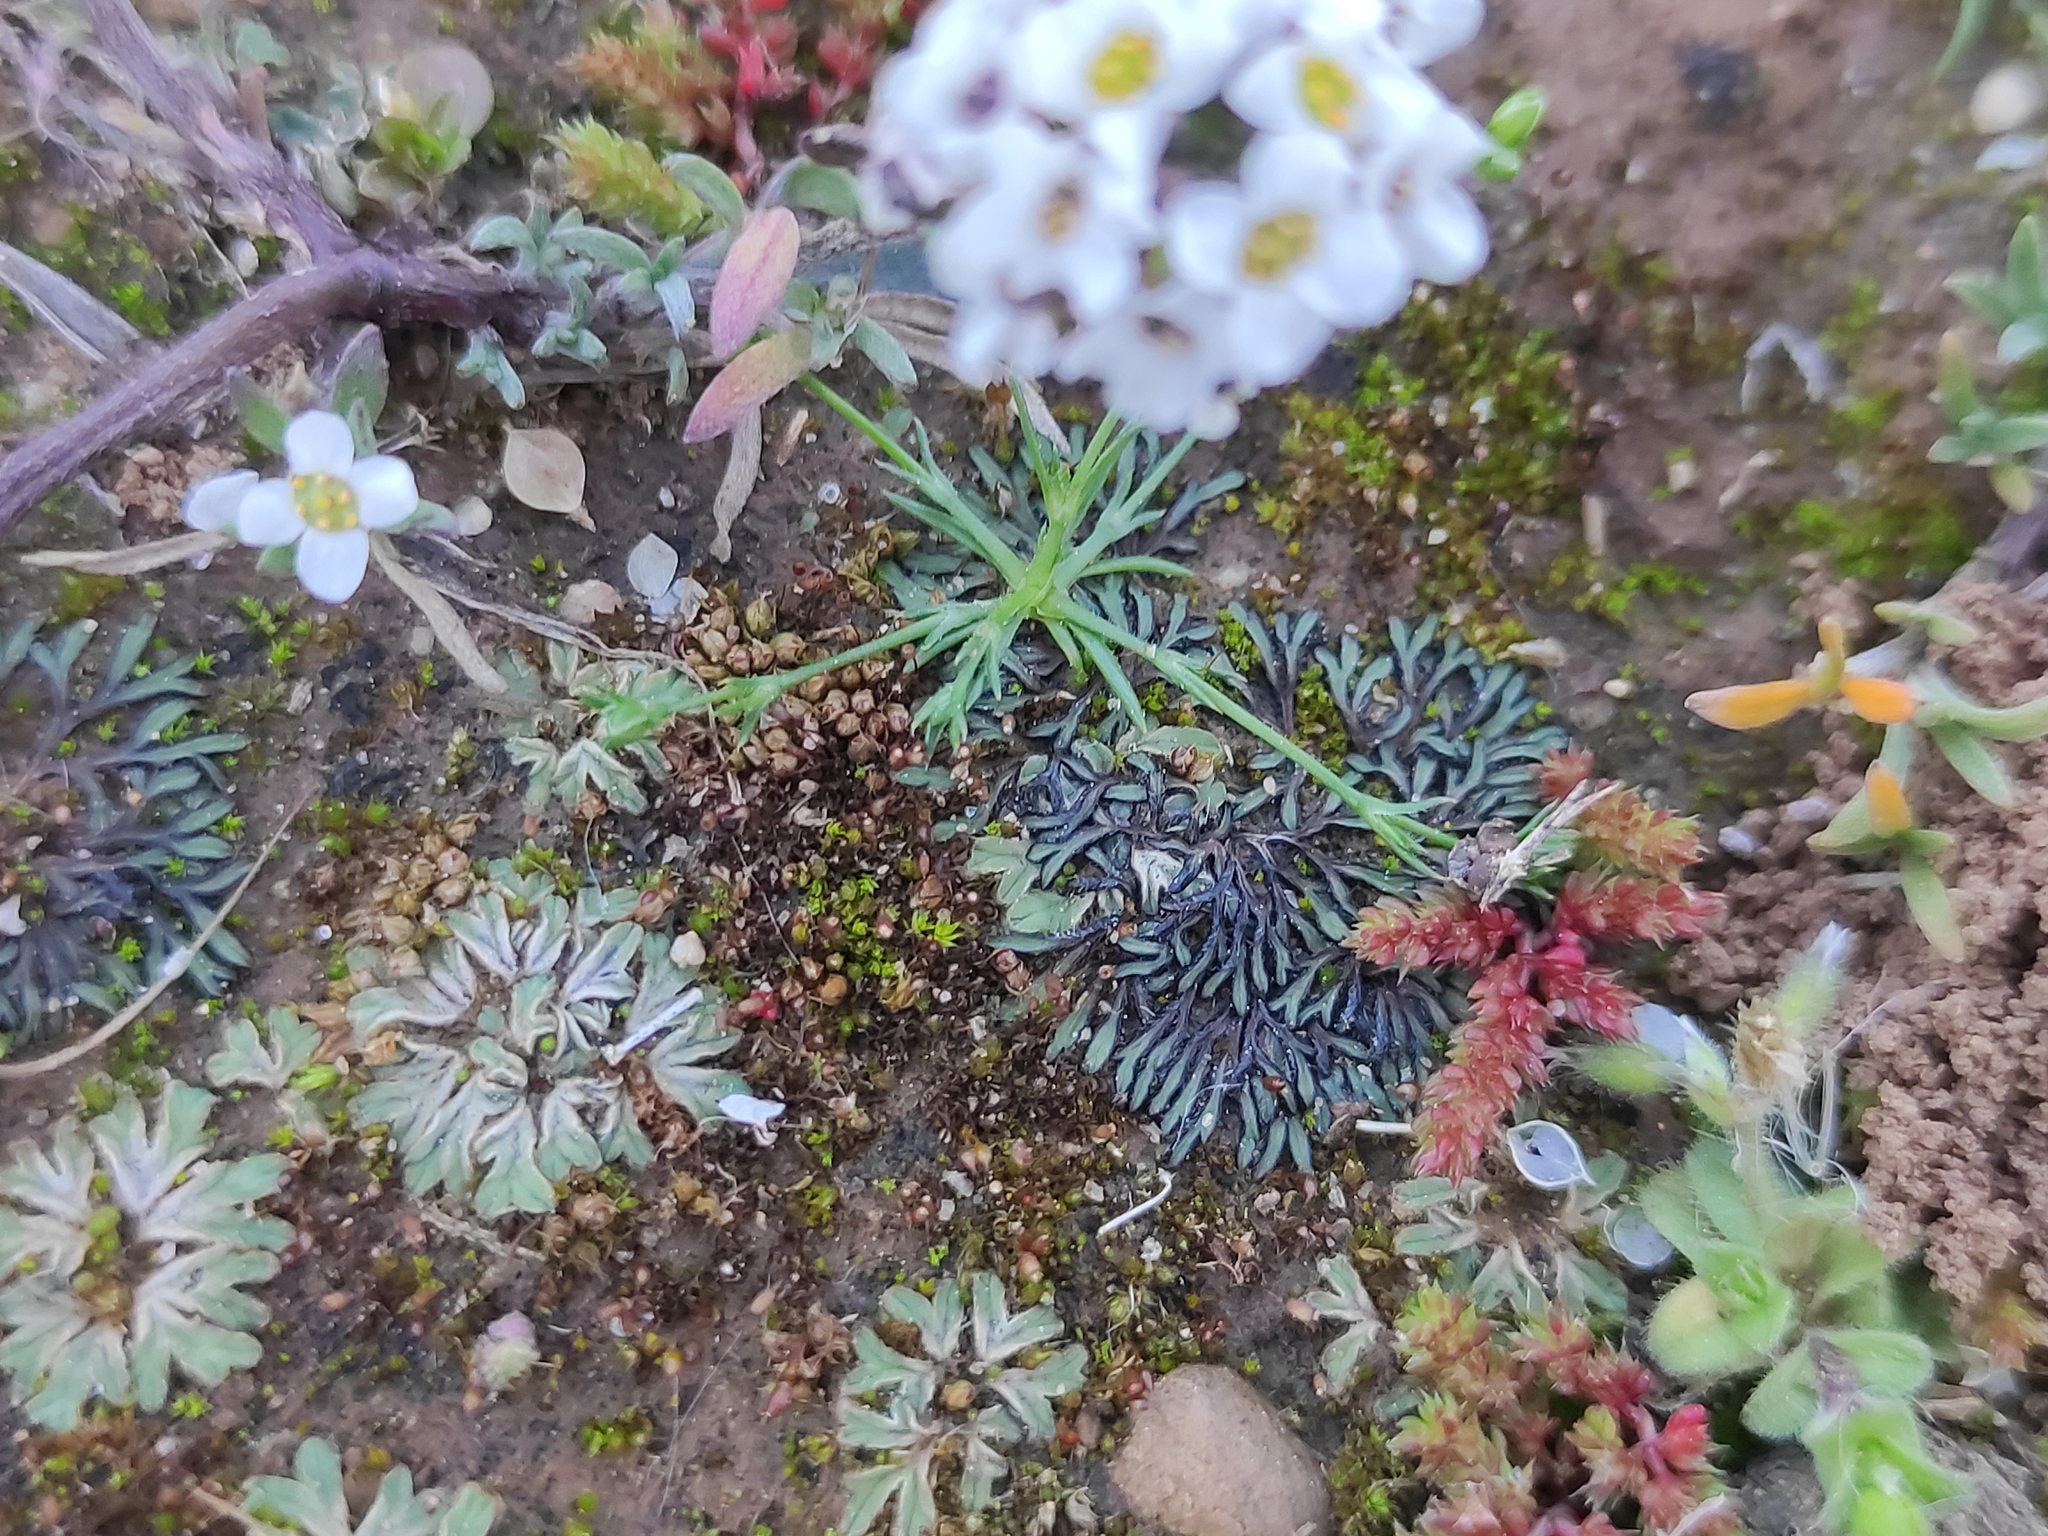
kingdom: Plantae
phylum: Marchantiophyta
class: Marchantiopsida
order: Marchantiales
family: Ricciaceae
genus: Riccia
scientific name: Riccia nigrella
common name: Black crystalwort
